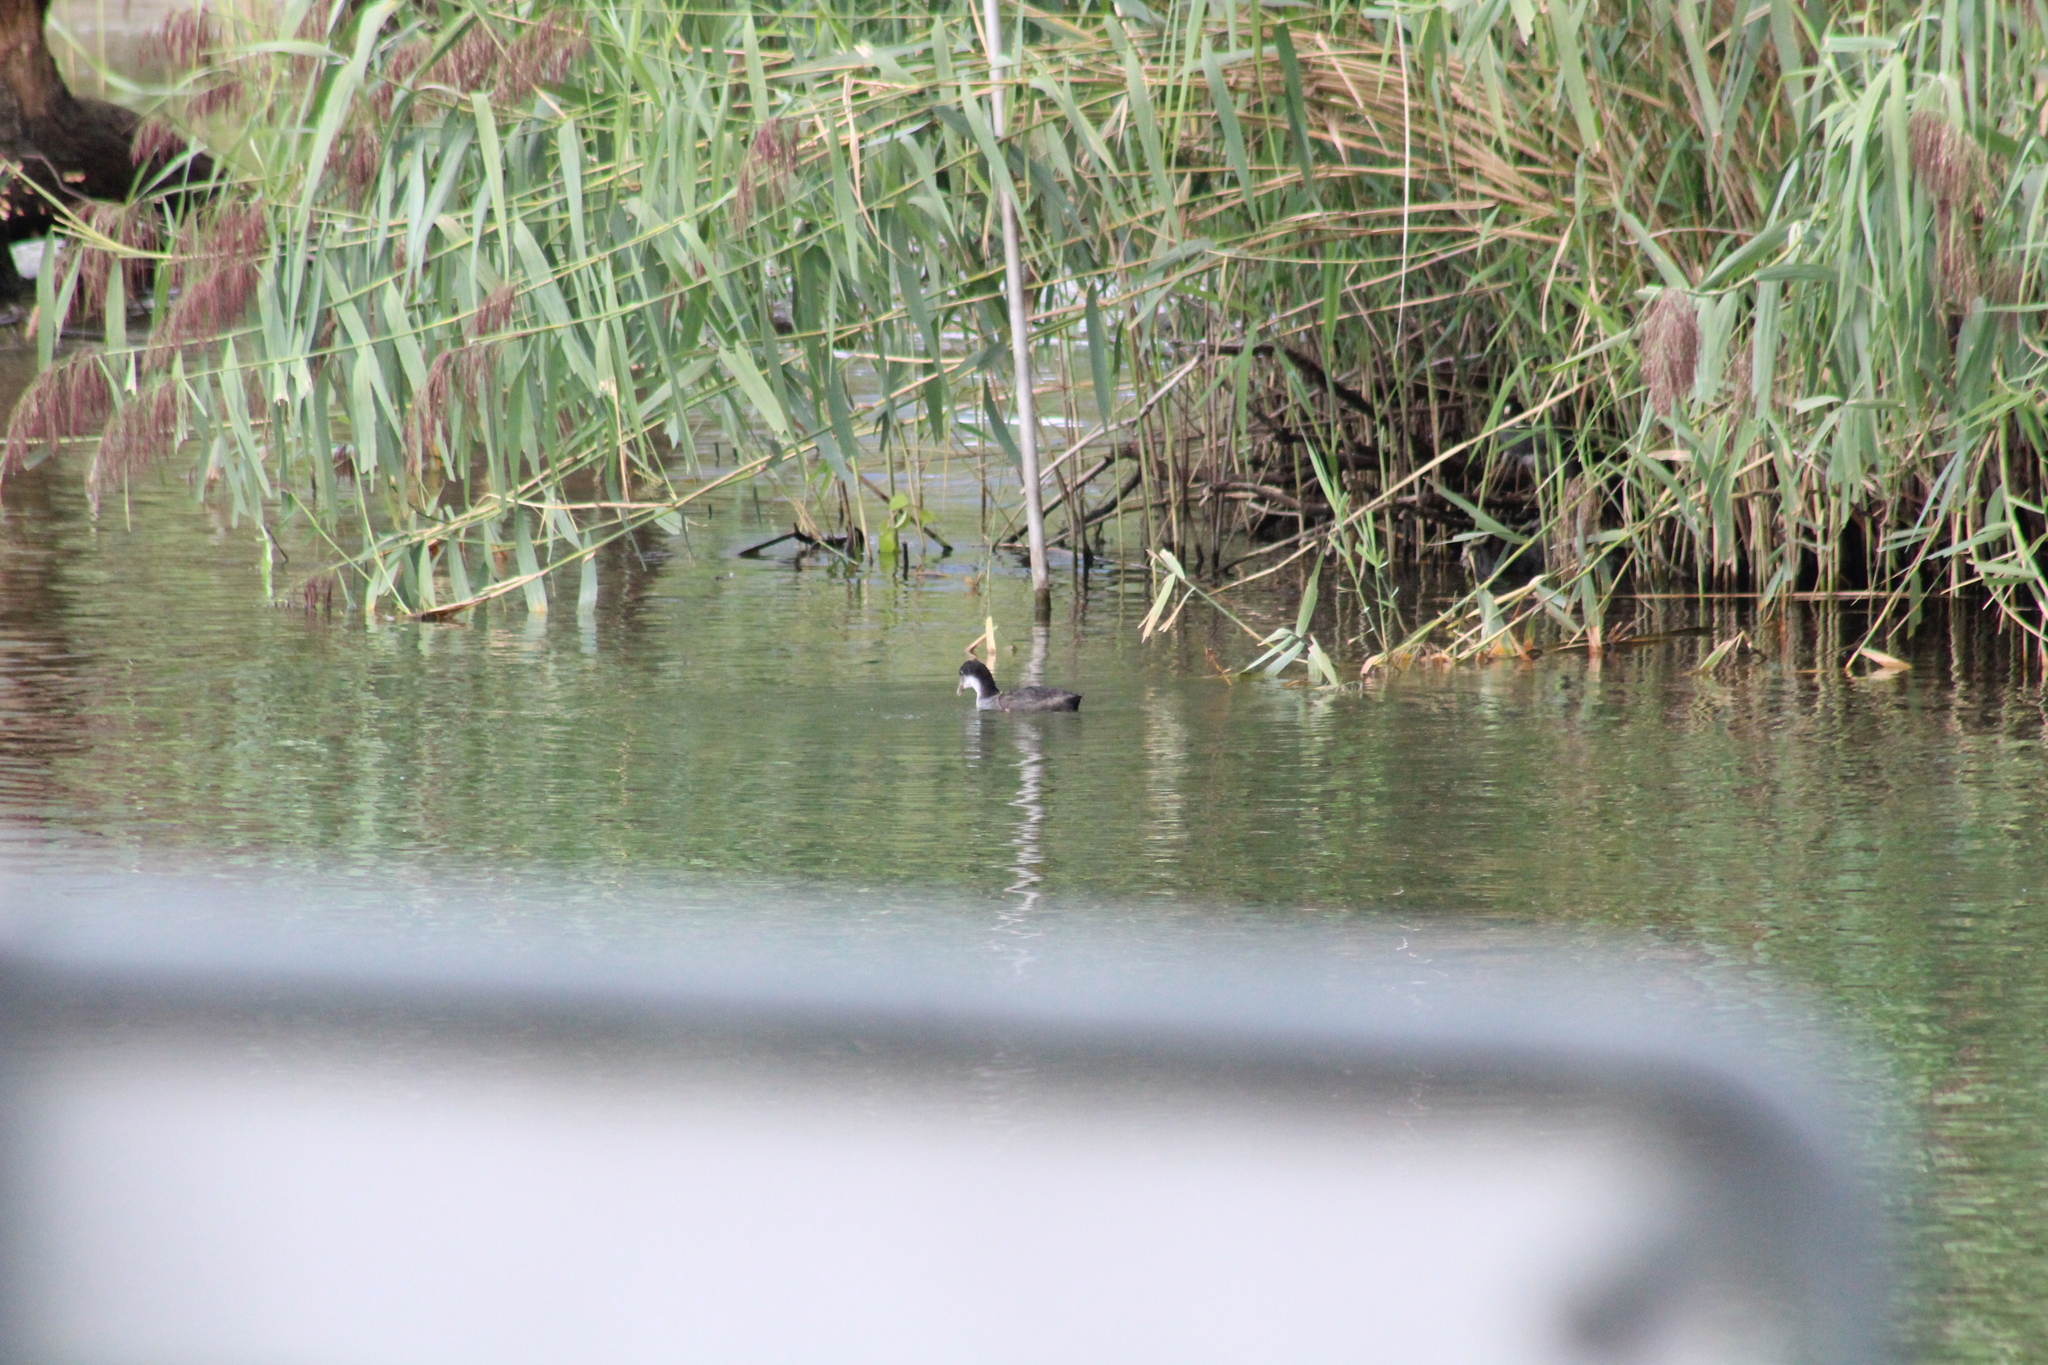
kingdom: Animalia
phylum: Chordata
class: Aves
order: Gruiformes
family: Rallidae
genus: Fulica
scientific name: Fulica atra
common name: Eurasian coot
